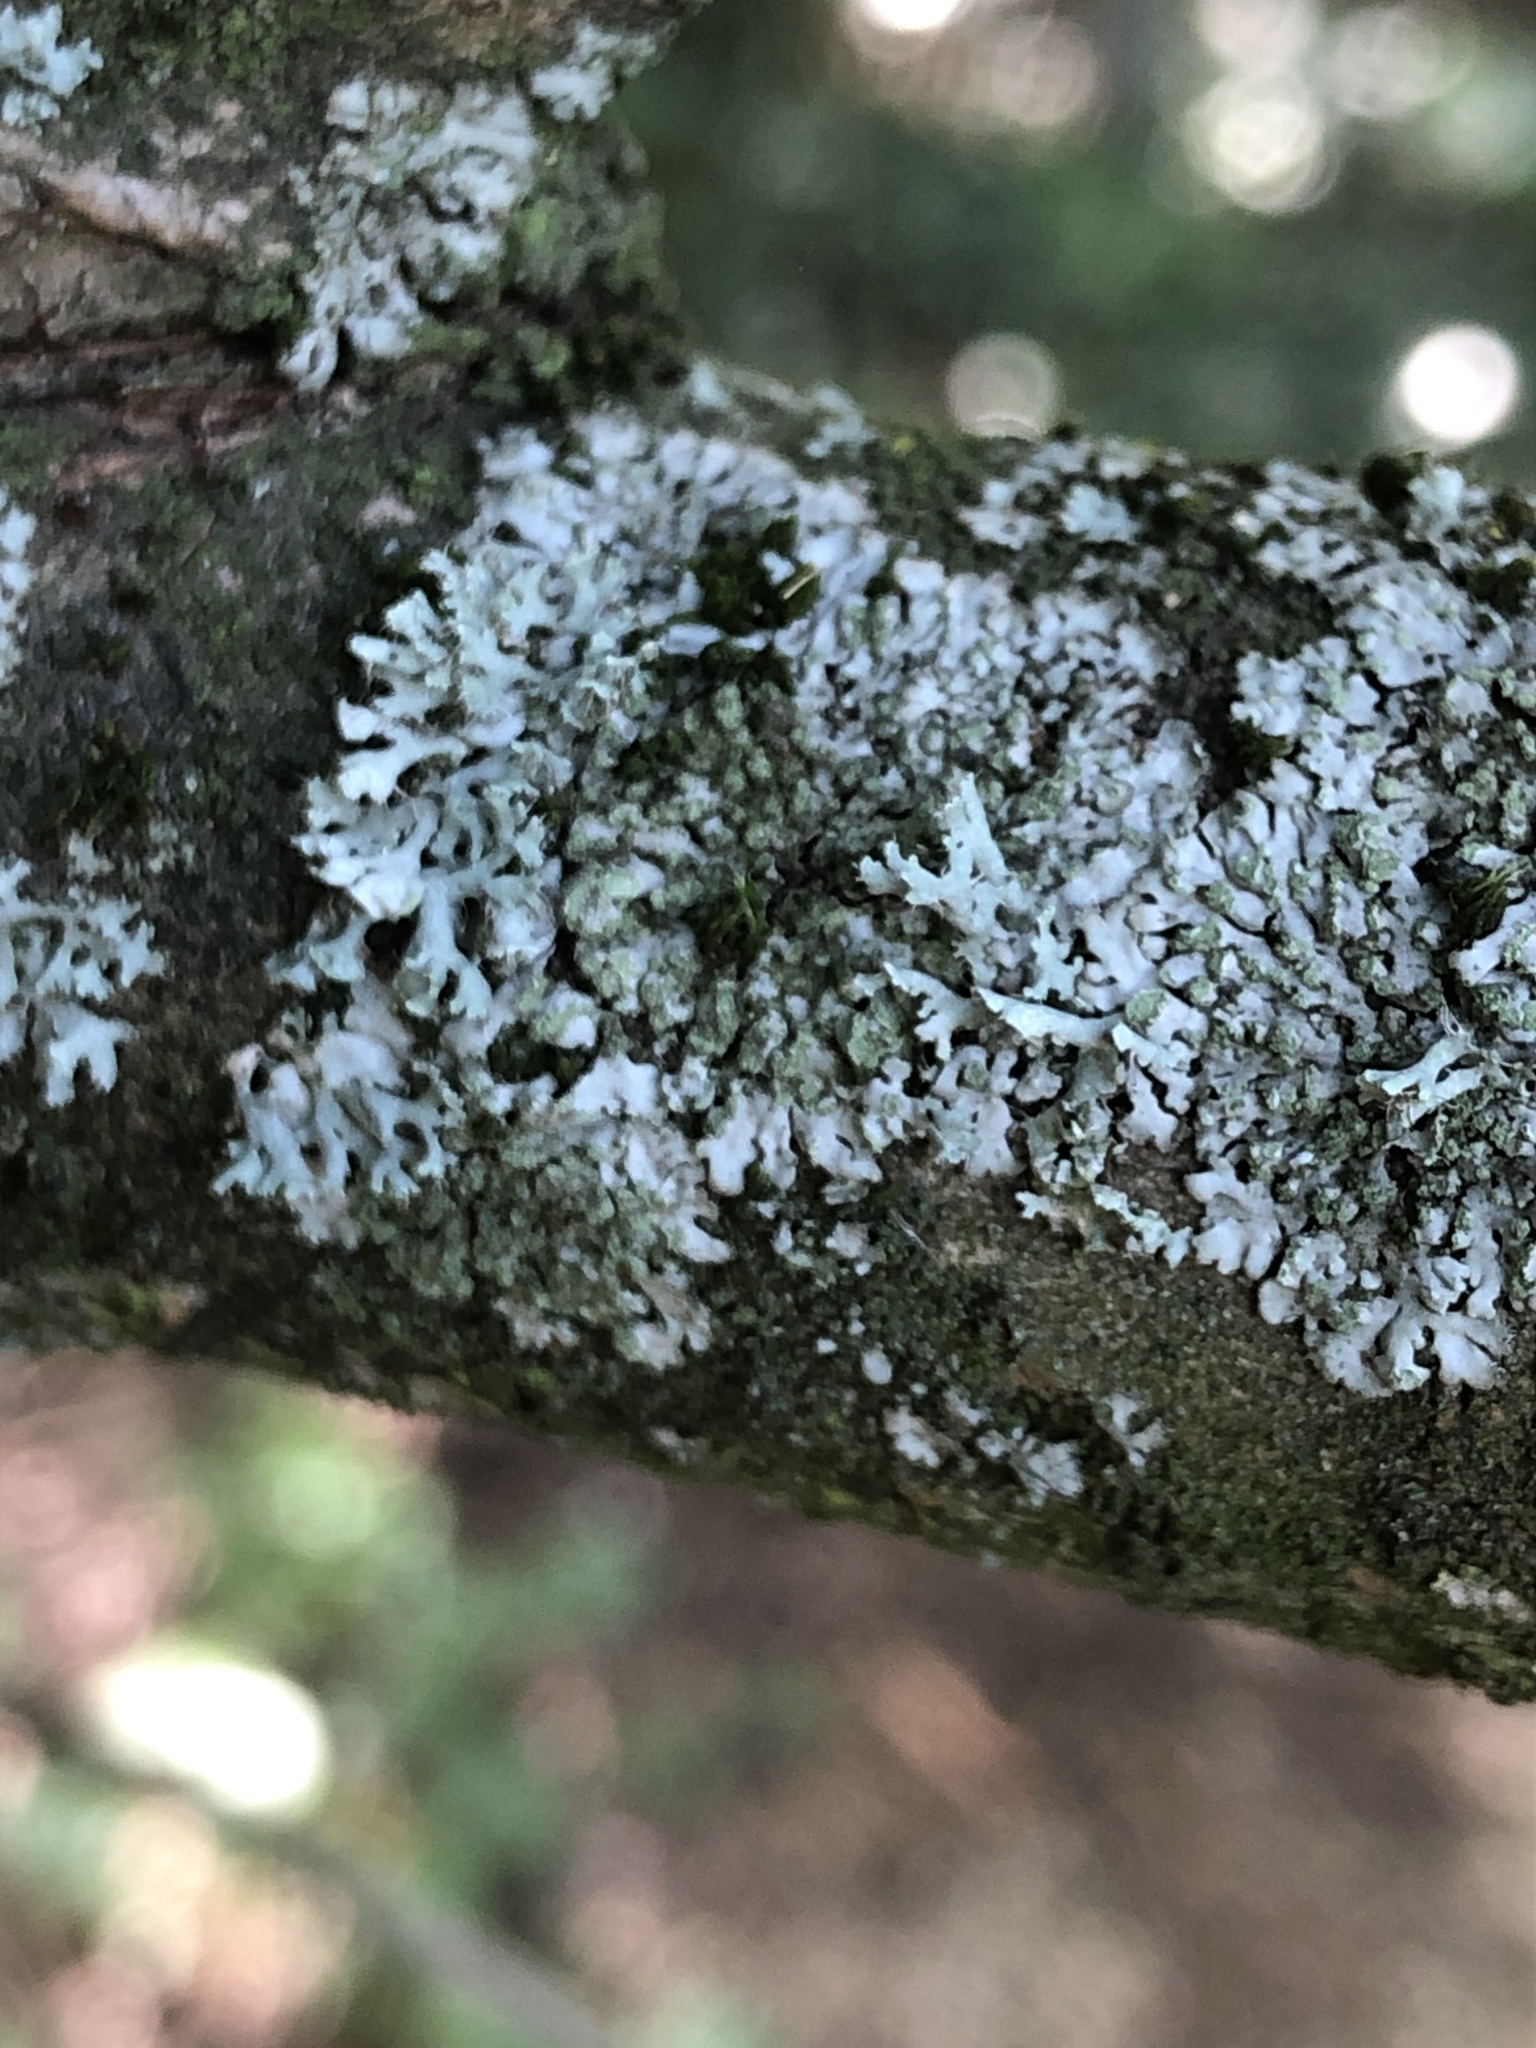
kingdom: Fungi
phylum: Ascomycota
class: Lecanoromycetes
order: Caliciales
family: Physciaceae
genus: Physcia
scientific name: Physcia adscendens
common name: Hooded rosette lichen
